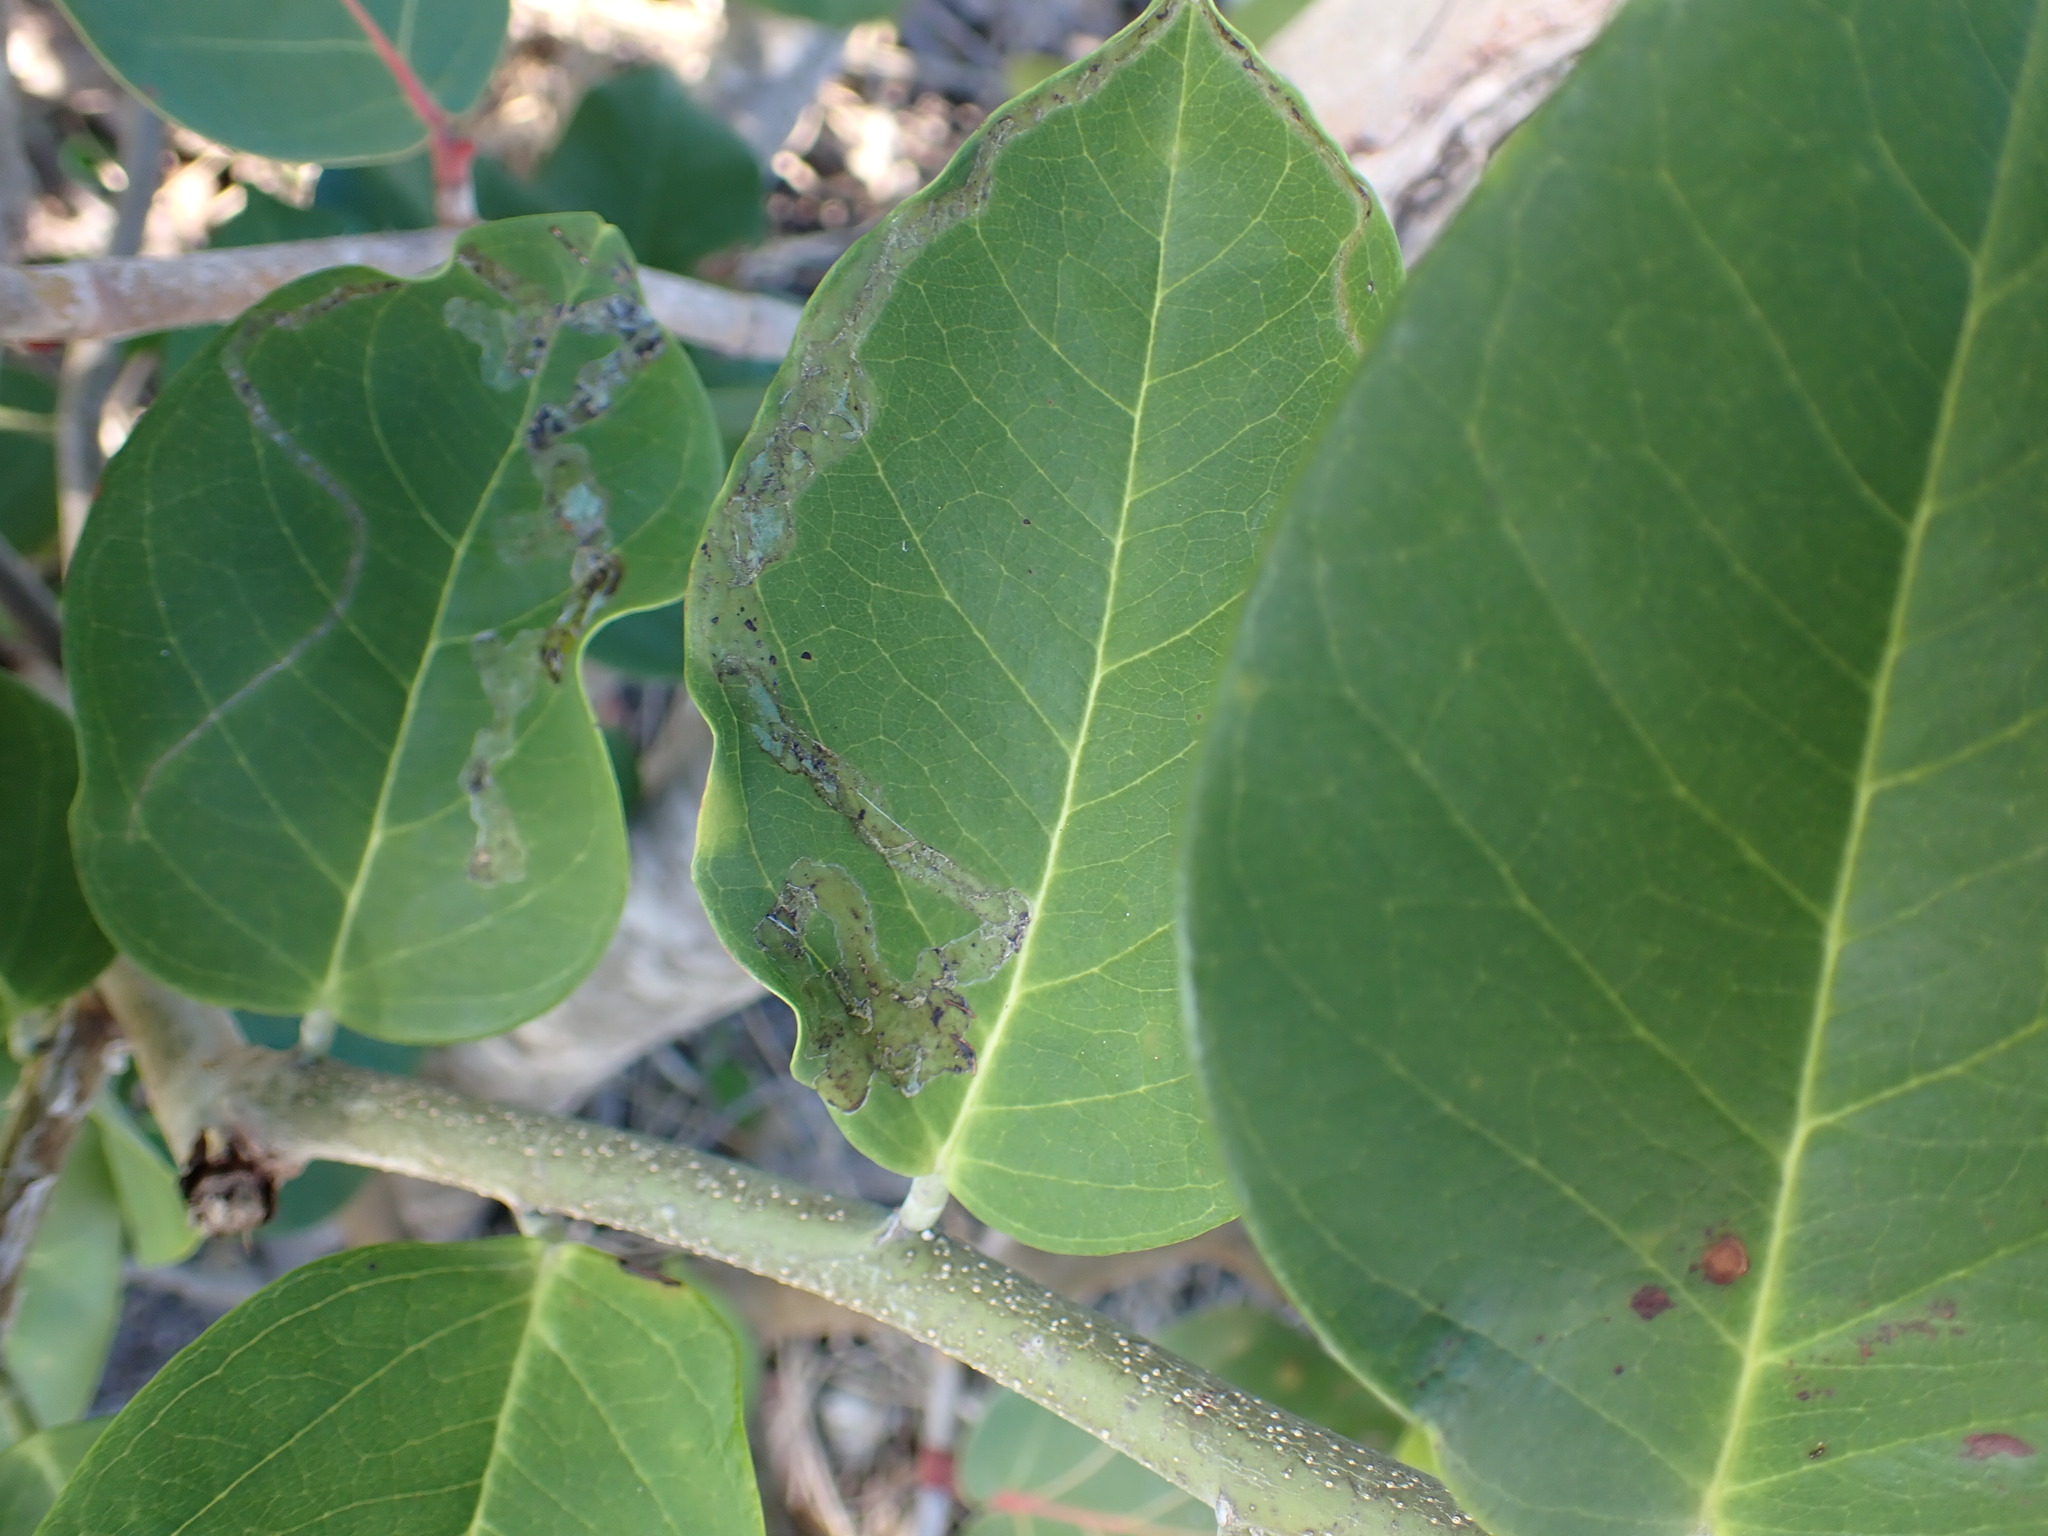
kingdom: Animalia
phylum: Arthropoda
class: Insecta
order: Diptera
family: Agromyzidae
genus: Liriomyza
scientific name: Liriomyza schmidti
